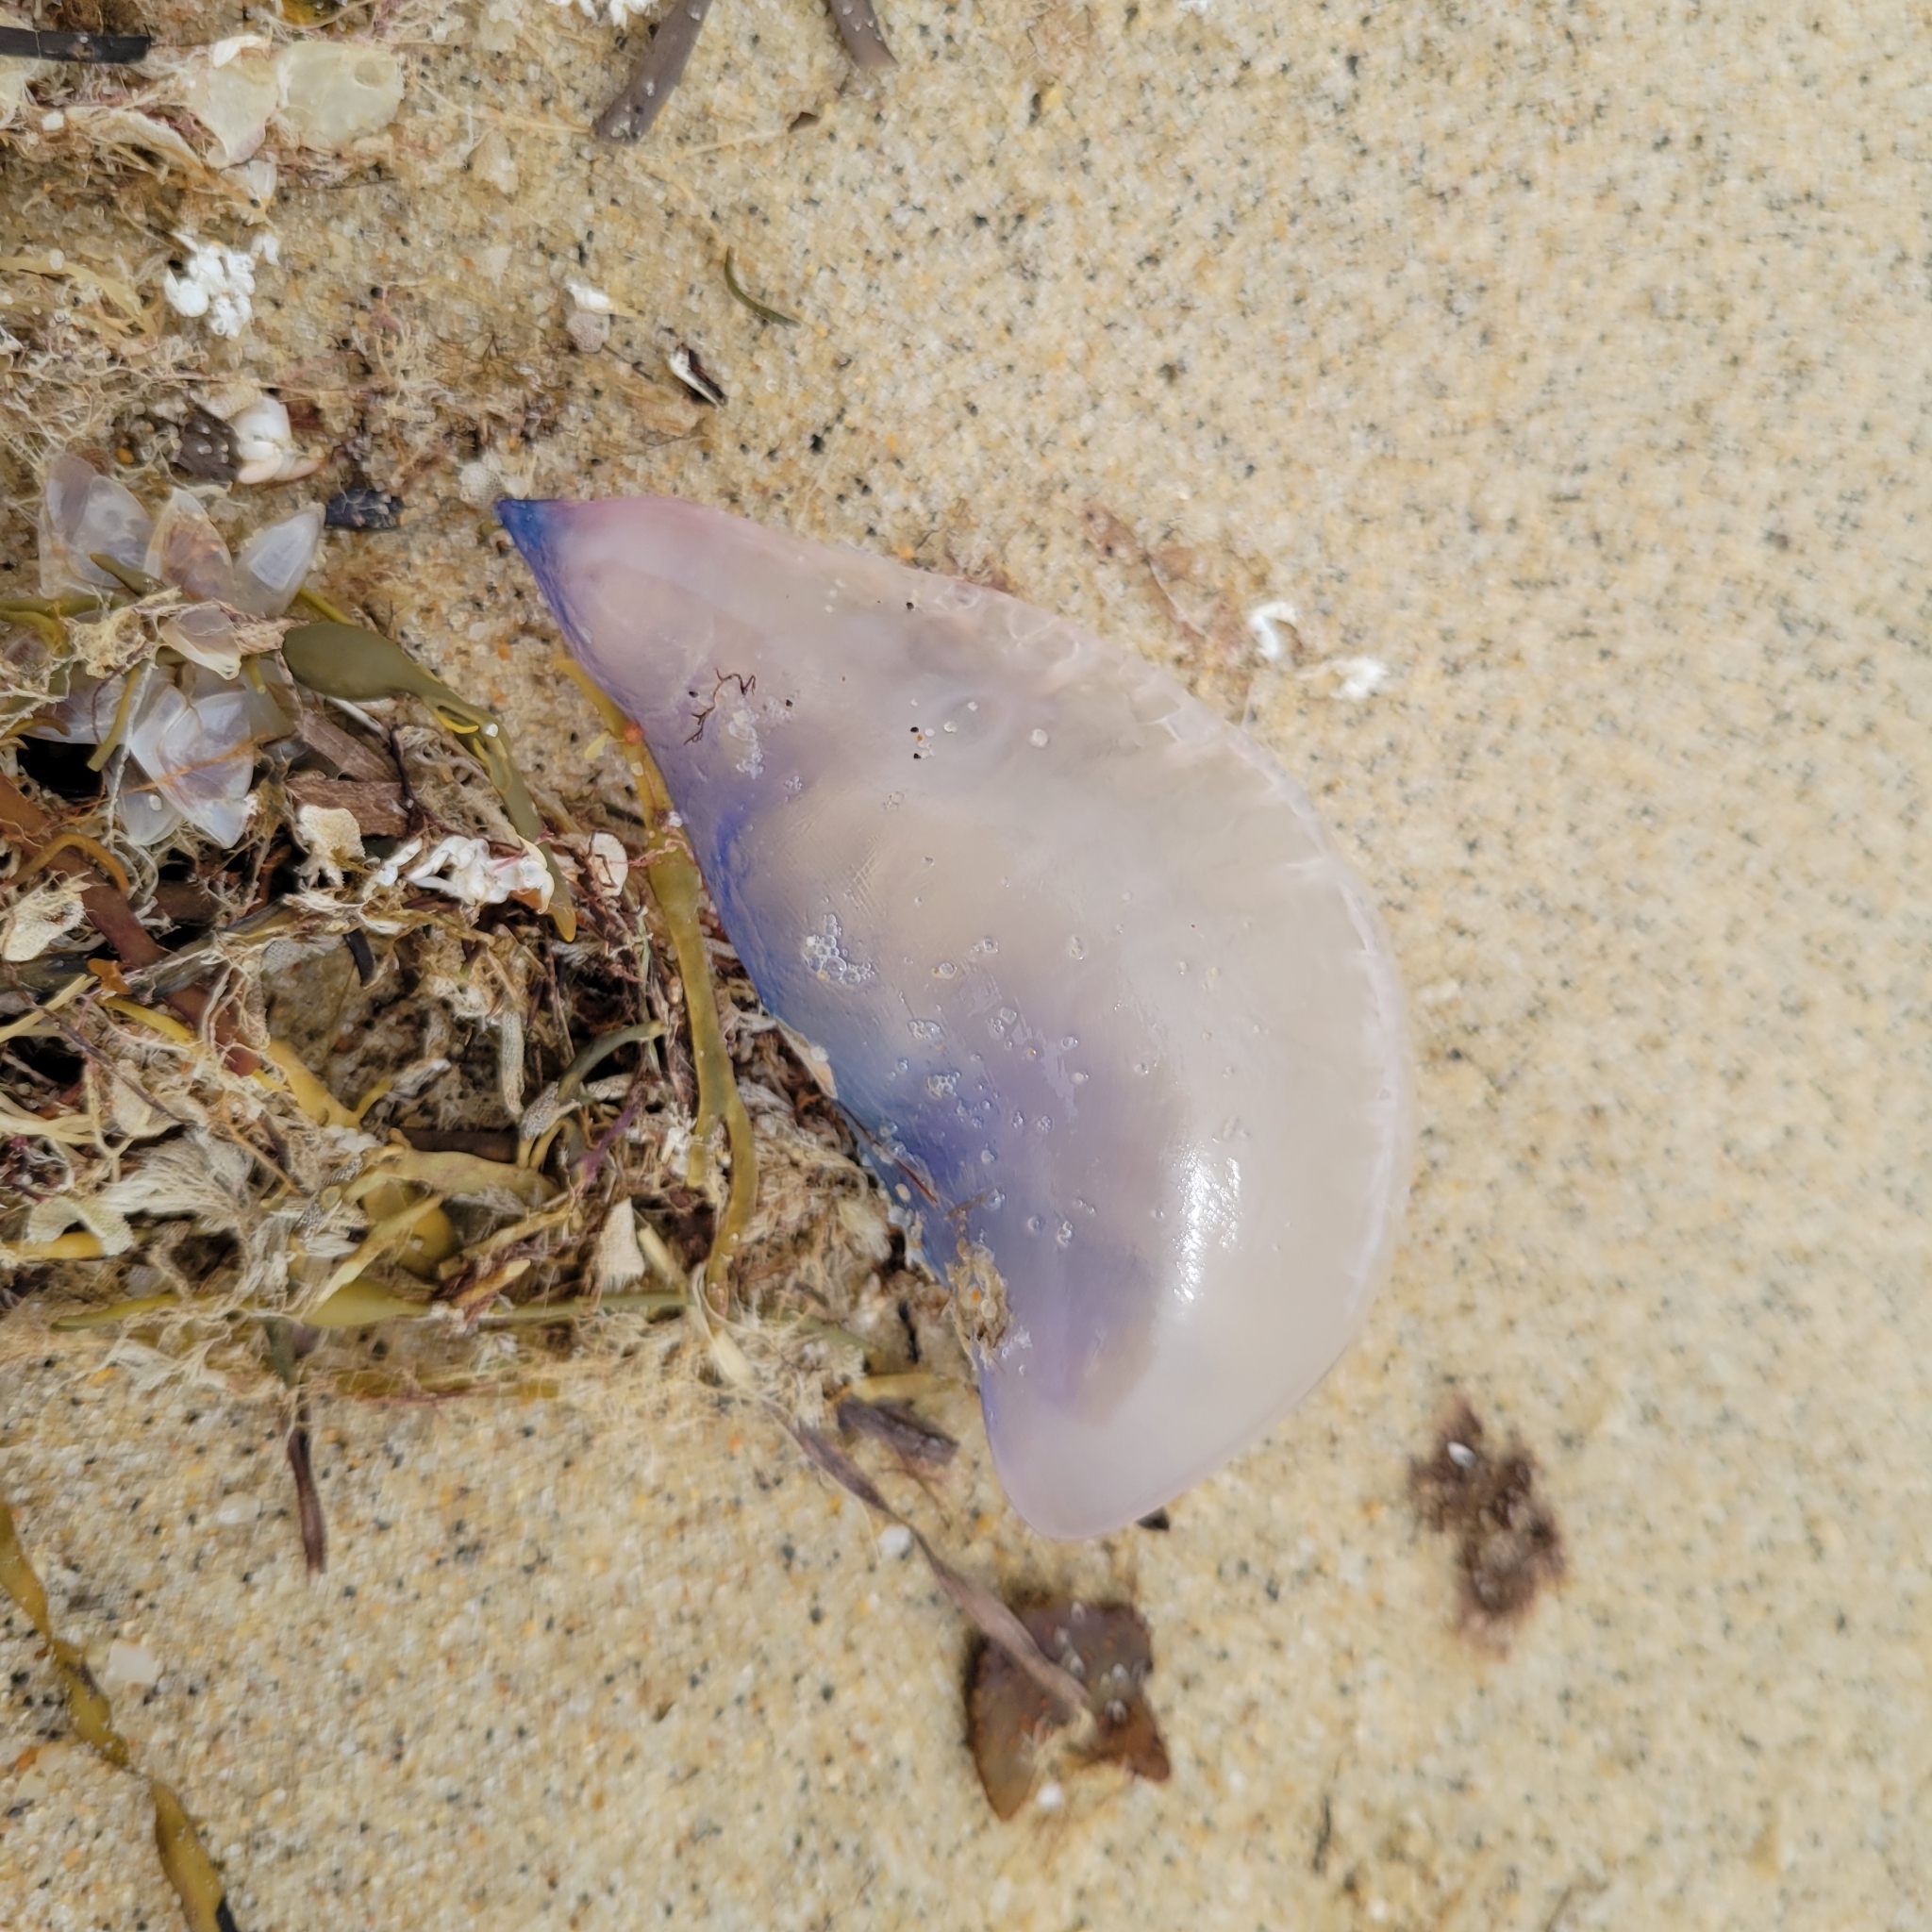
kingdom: Animalia
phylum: Cnidaria
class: Hydrozoa
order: Siphonophorae
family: Physaliidae
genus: Physalia
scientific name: Physalia physalis
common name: Portuguese man-of-war
